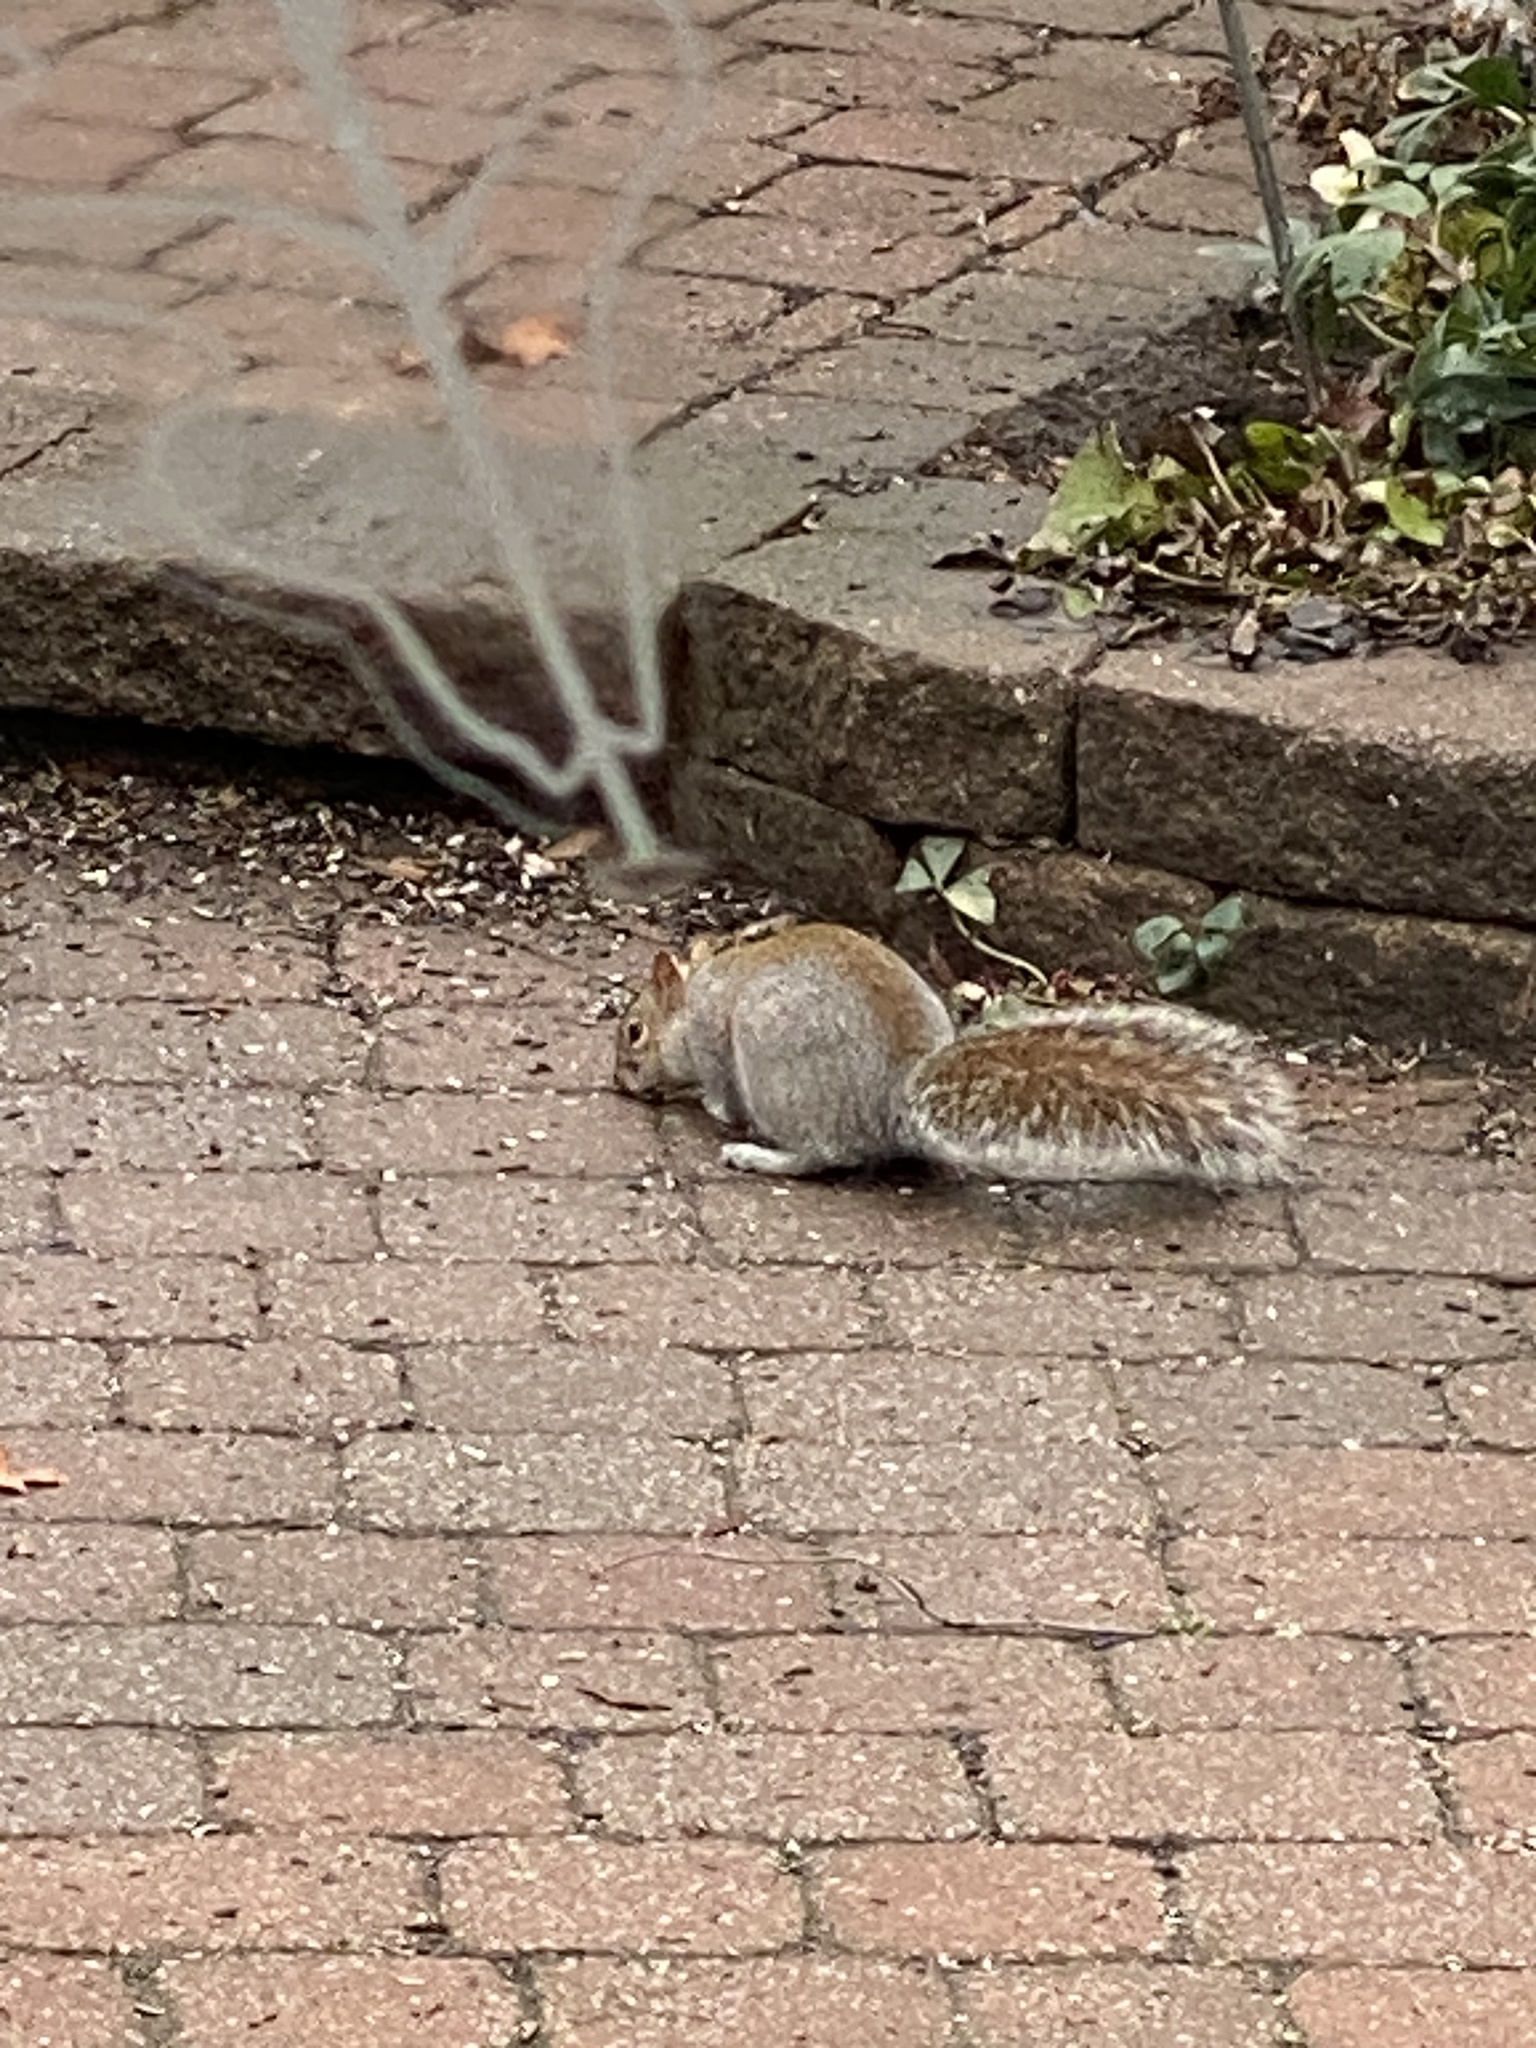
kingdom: Animalia
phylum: Chordata
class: Mammalia
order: Rodentia
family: Sciuridae
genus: Sciurus
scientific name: Sciurus carolinensis
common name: Eastern gray squirrel
